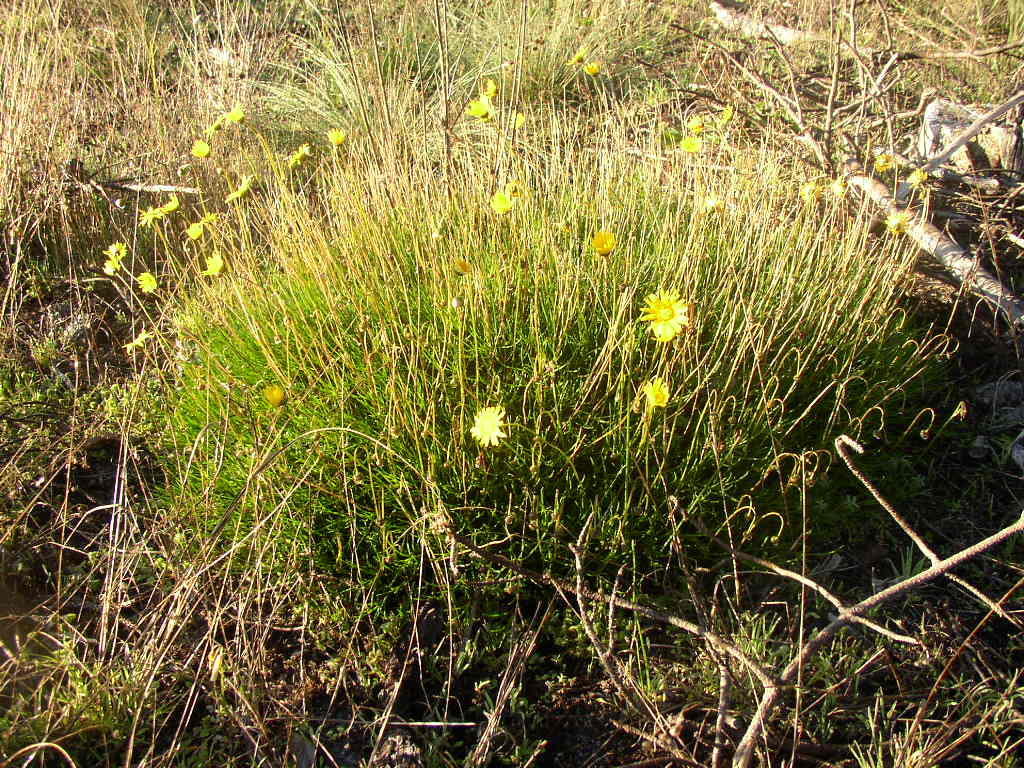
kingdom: Plantae
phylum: Tracheophyta
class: Magnoliopsida
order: Asterales
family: Asteraceae
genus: Ursinia
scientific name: Ursinia tenuifolia
